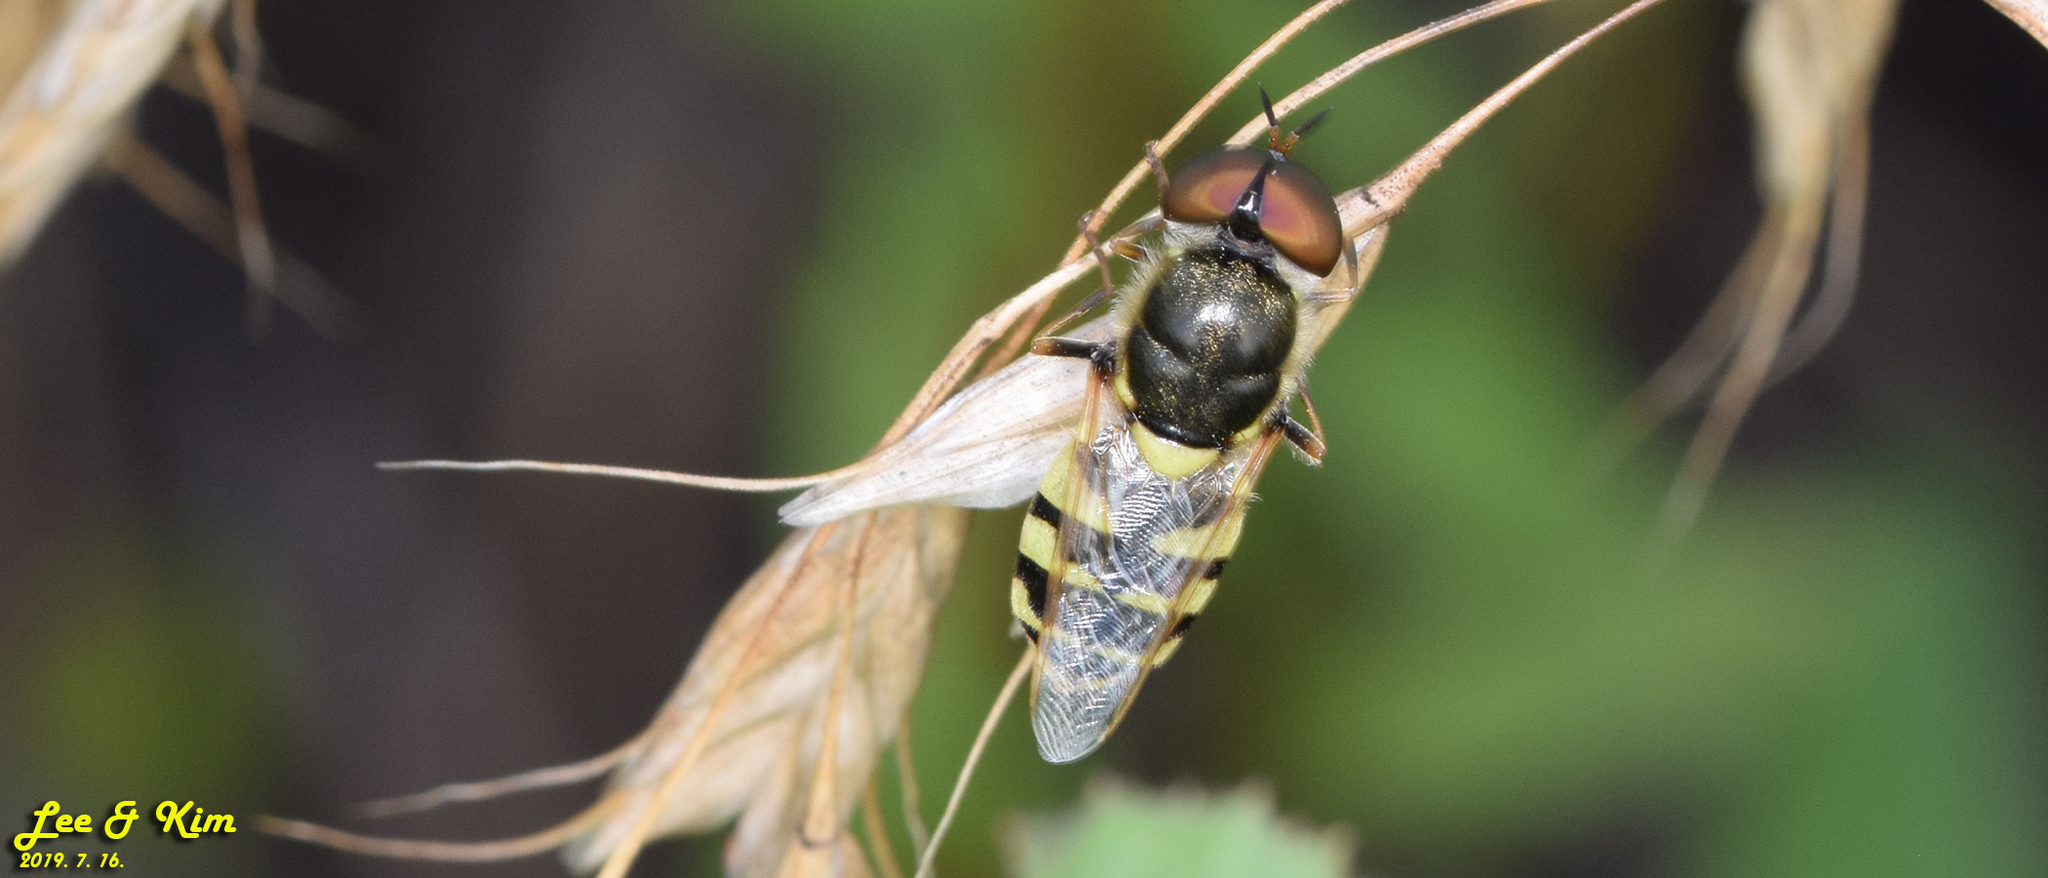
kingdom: Animalia
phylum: Arthropoda
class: Insecta
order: Diptera
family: Stratiomyidae
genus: Odontomyia
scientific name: Odontomyia garatas
